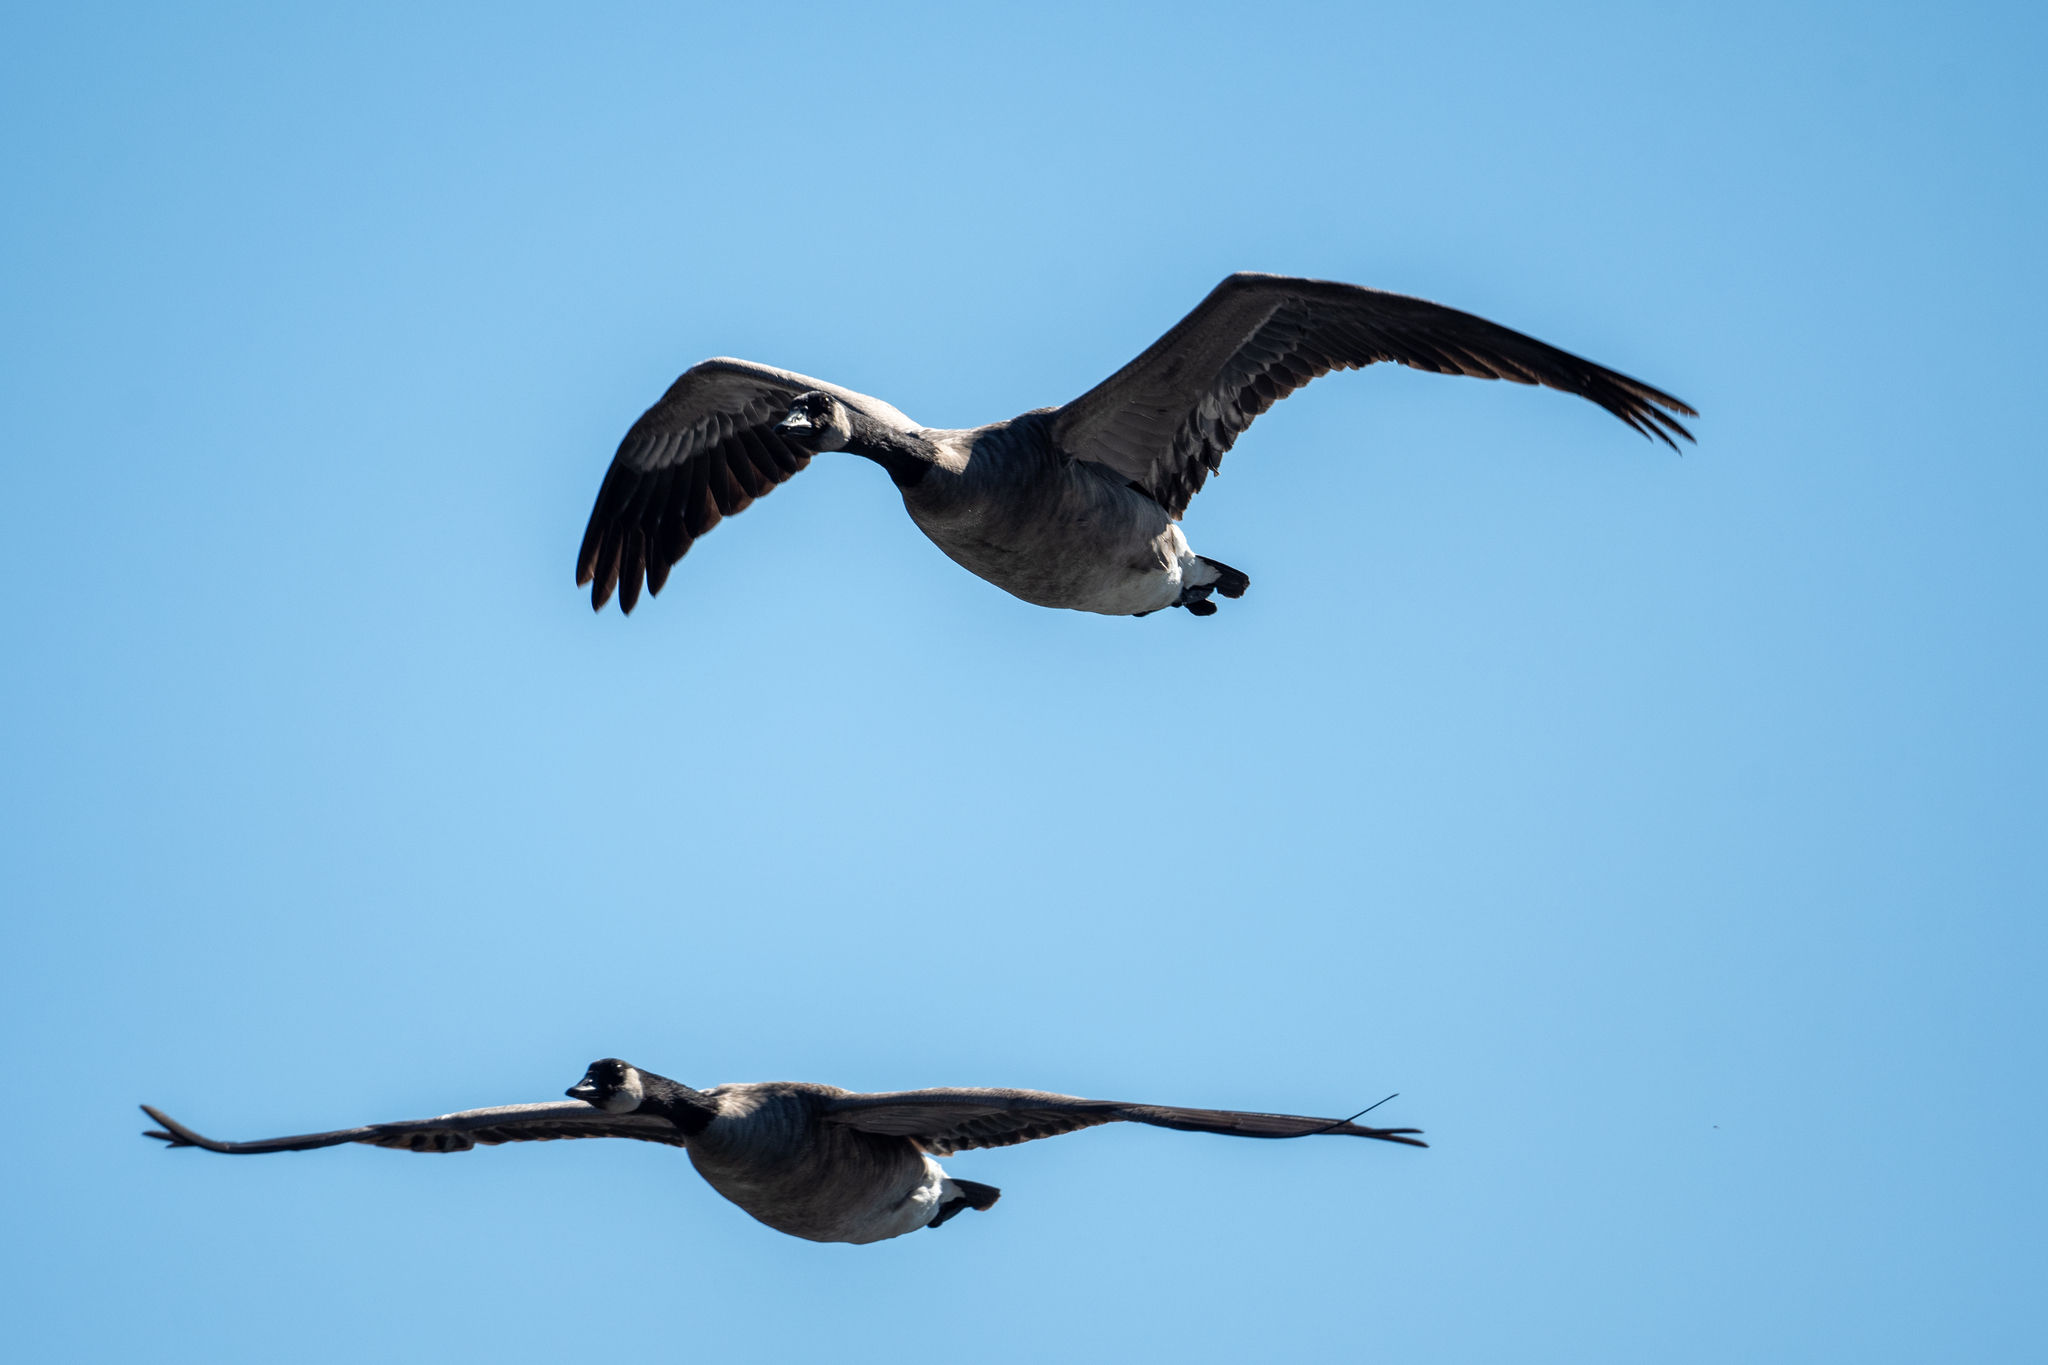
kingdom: Animalia
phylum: Chordata
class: Aves
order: Anseriformes
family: Anatidae
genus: Branta
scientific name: Branta canadensis
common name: Canada goose
